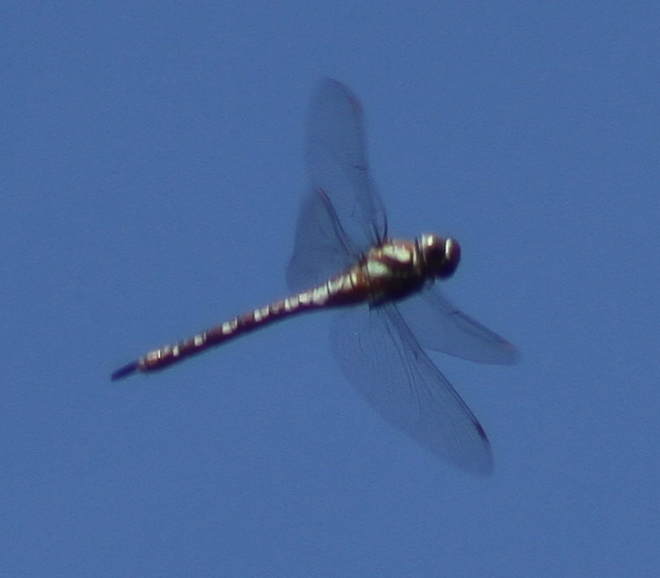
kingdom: Animalia
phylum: Arthropoda
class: Insecta
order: Odonata
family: Aeshnidae
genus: Aeshna
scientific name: Aeshna mixta
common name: Migrant hawker
